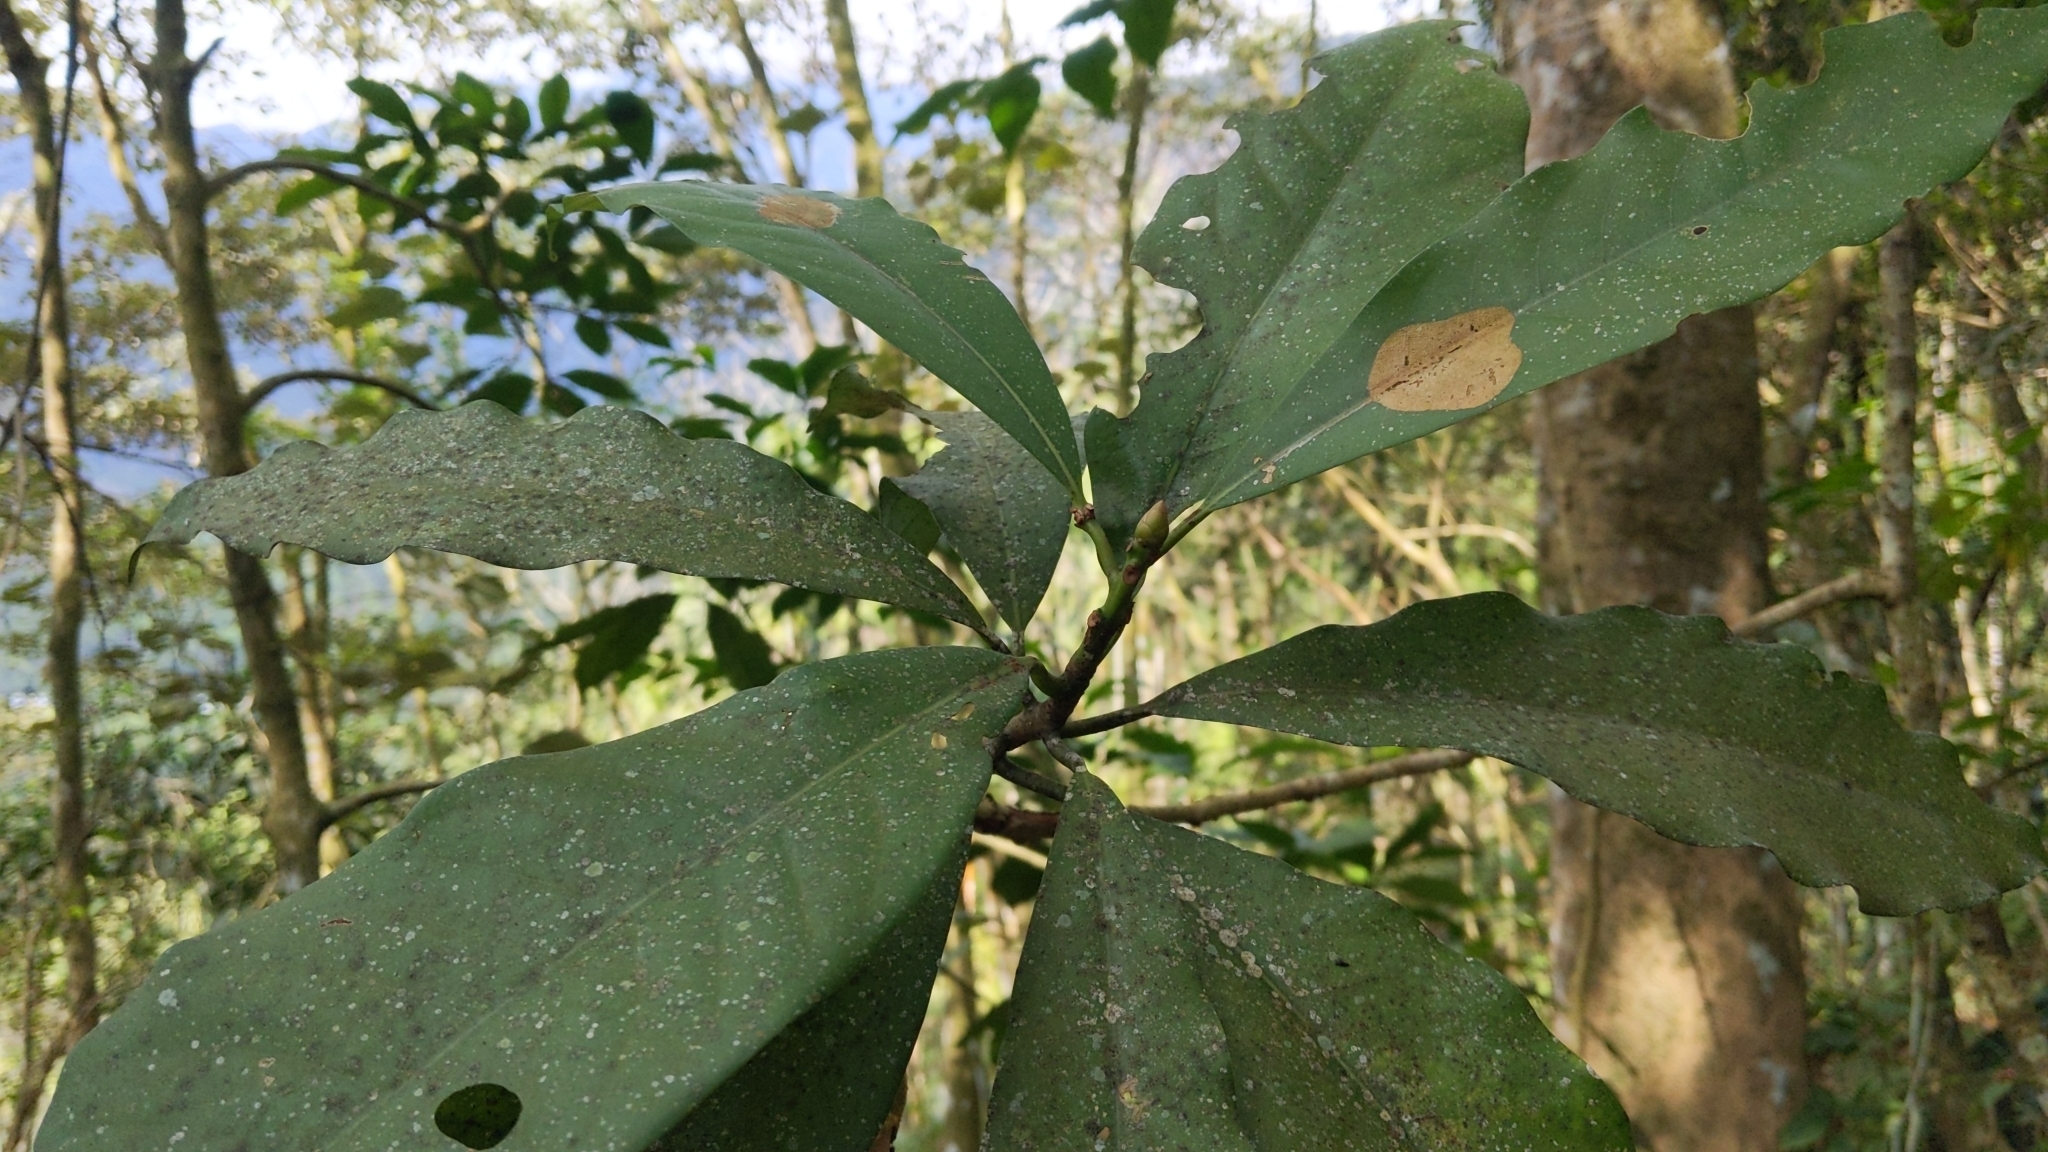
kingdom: Plantae
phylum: Tracheophyta
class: Magnoliopsida
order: Laurales
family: Lauraceae
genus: Machilus
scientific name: Machilus japonica
